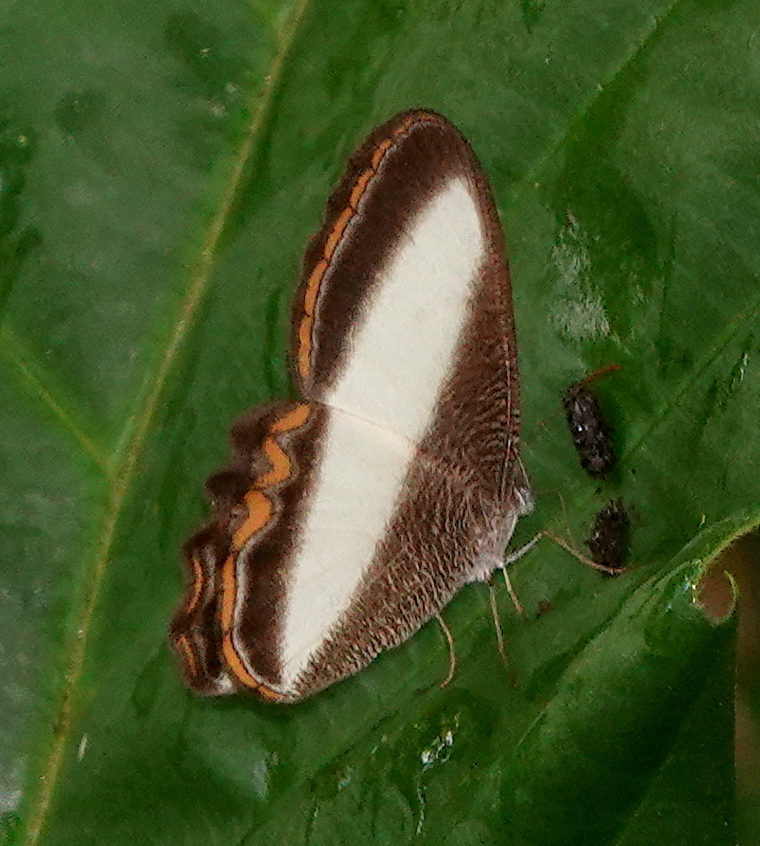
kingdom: Animalia
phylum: Arthropoda
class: Insecta
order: Lepidoptera
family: Nymphalidae
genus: Oressinoma
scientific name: Oressinoma typhla
